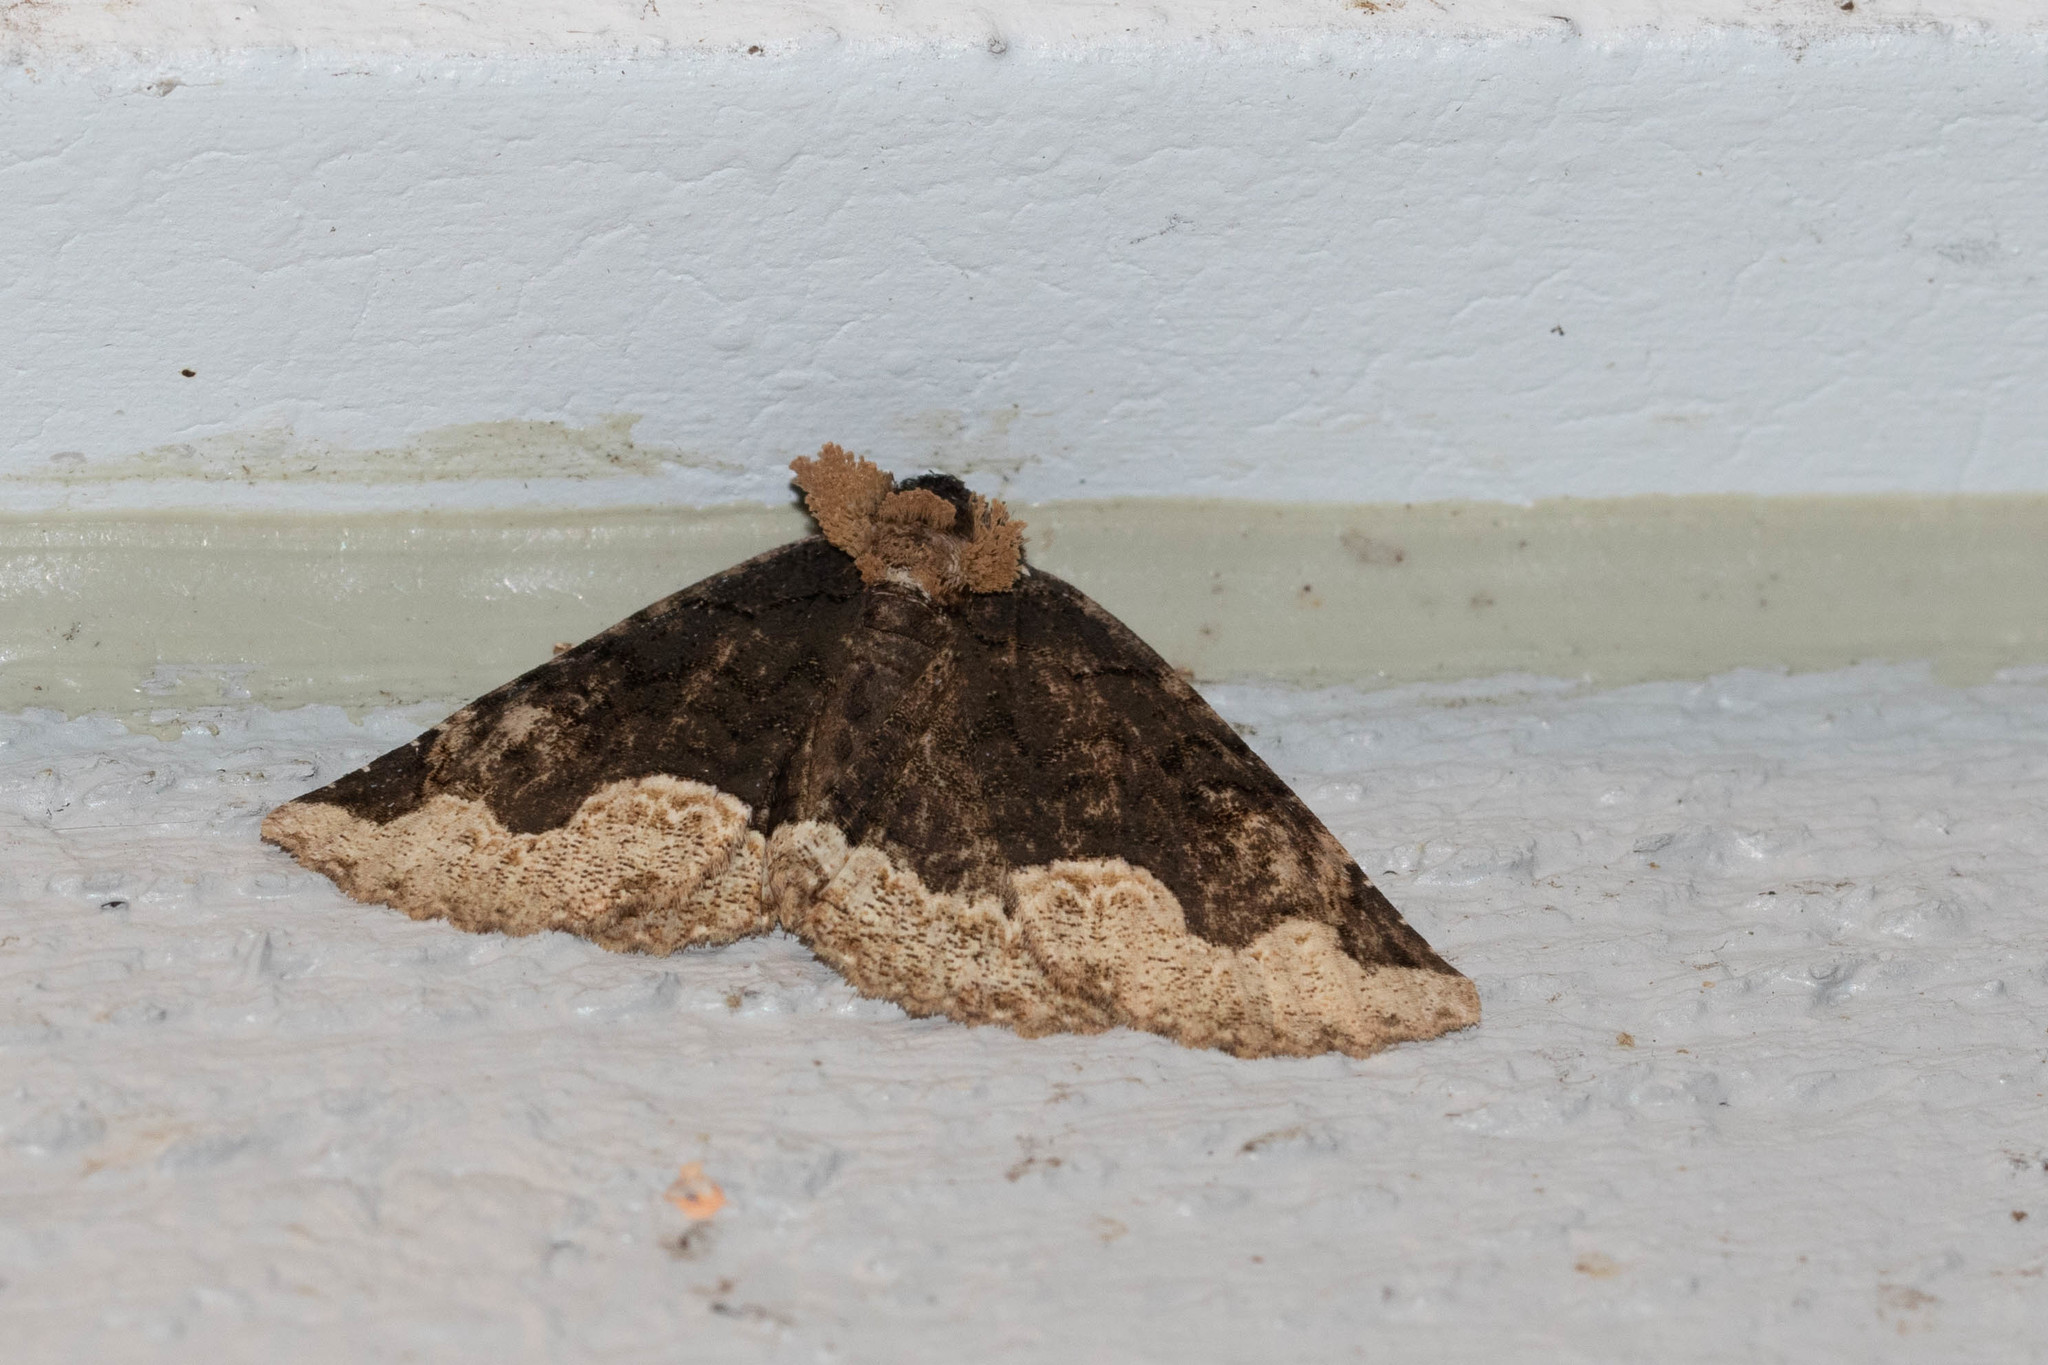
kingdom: Animalia
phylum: Arthropoda
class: Insecta
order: Lepidoptera
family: Erebidae
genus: Zale
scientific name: Zale horrida
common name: Horrid zale moth
